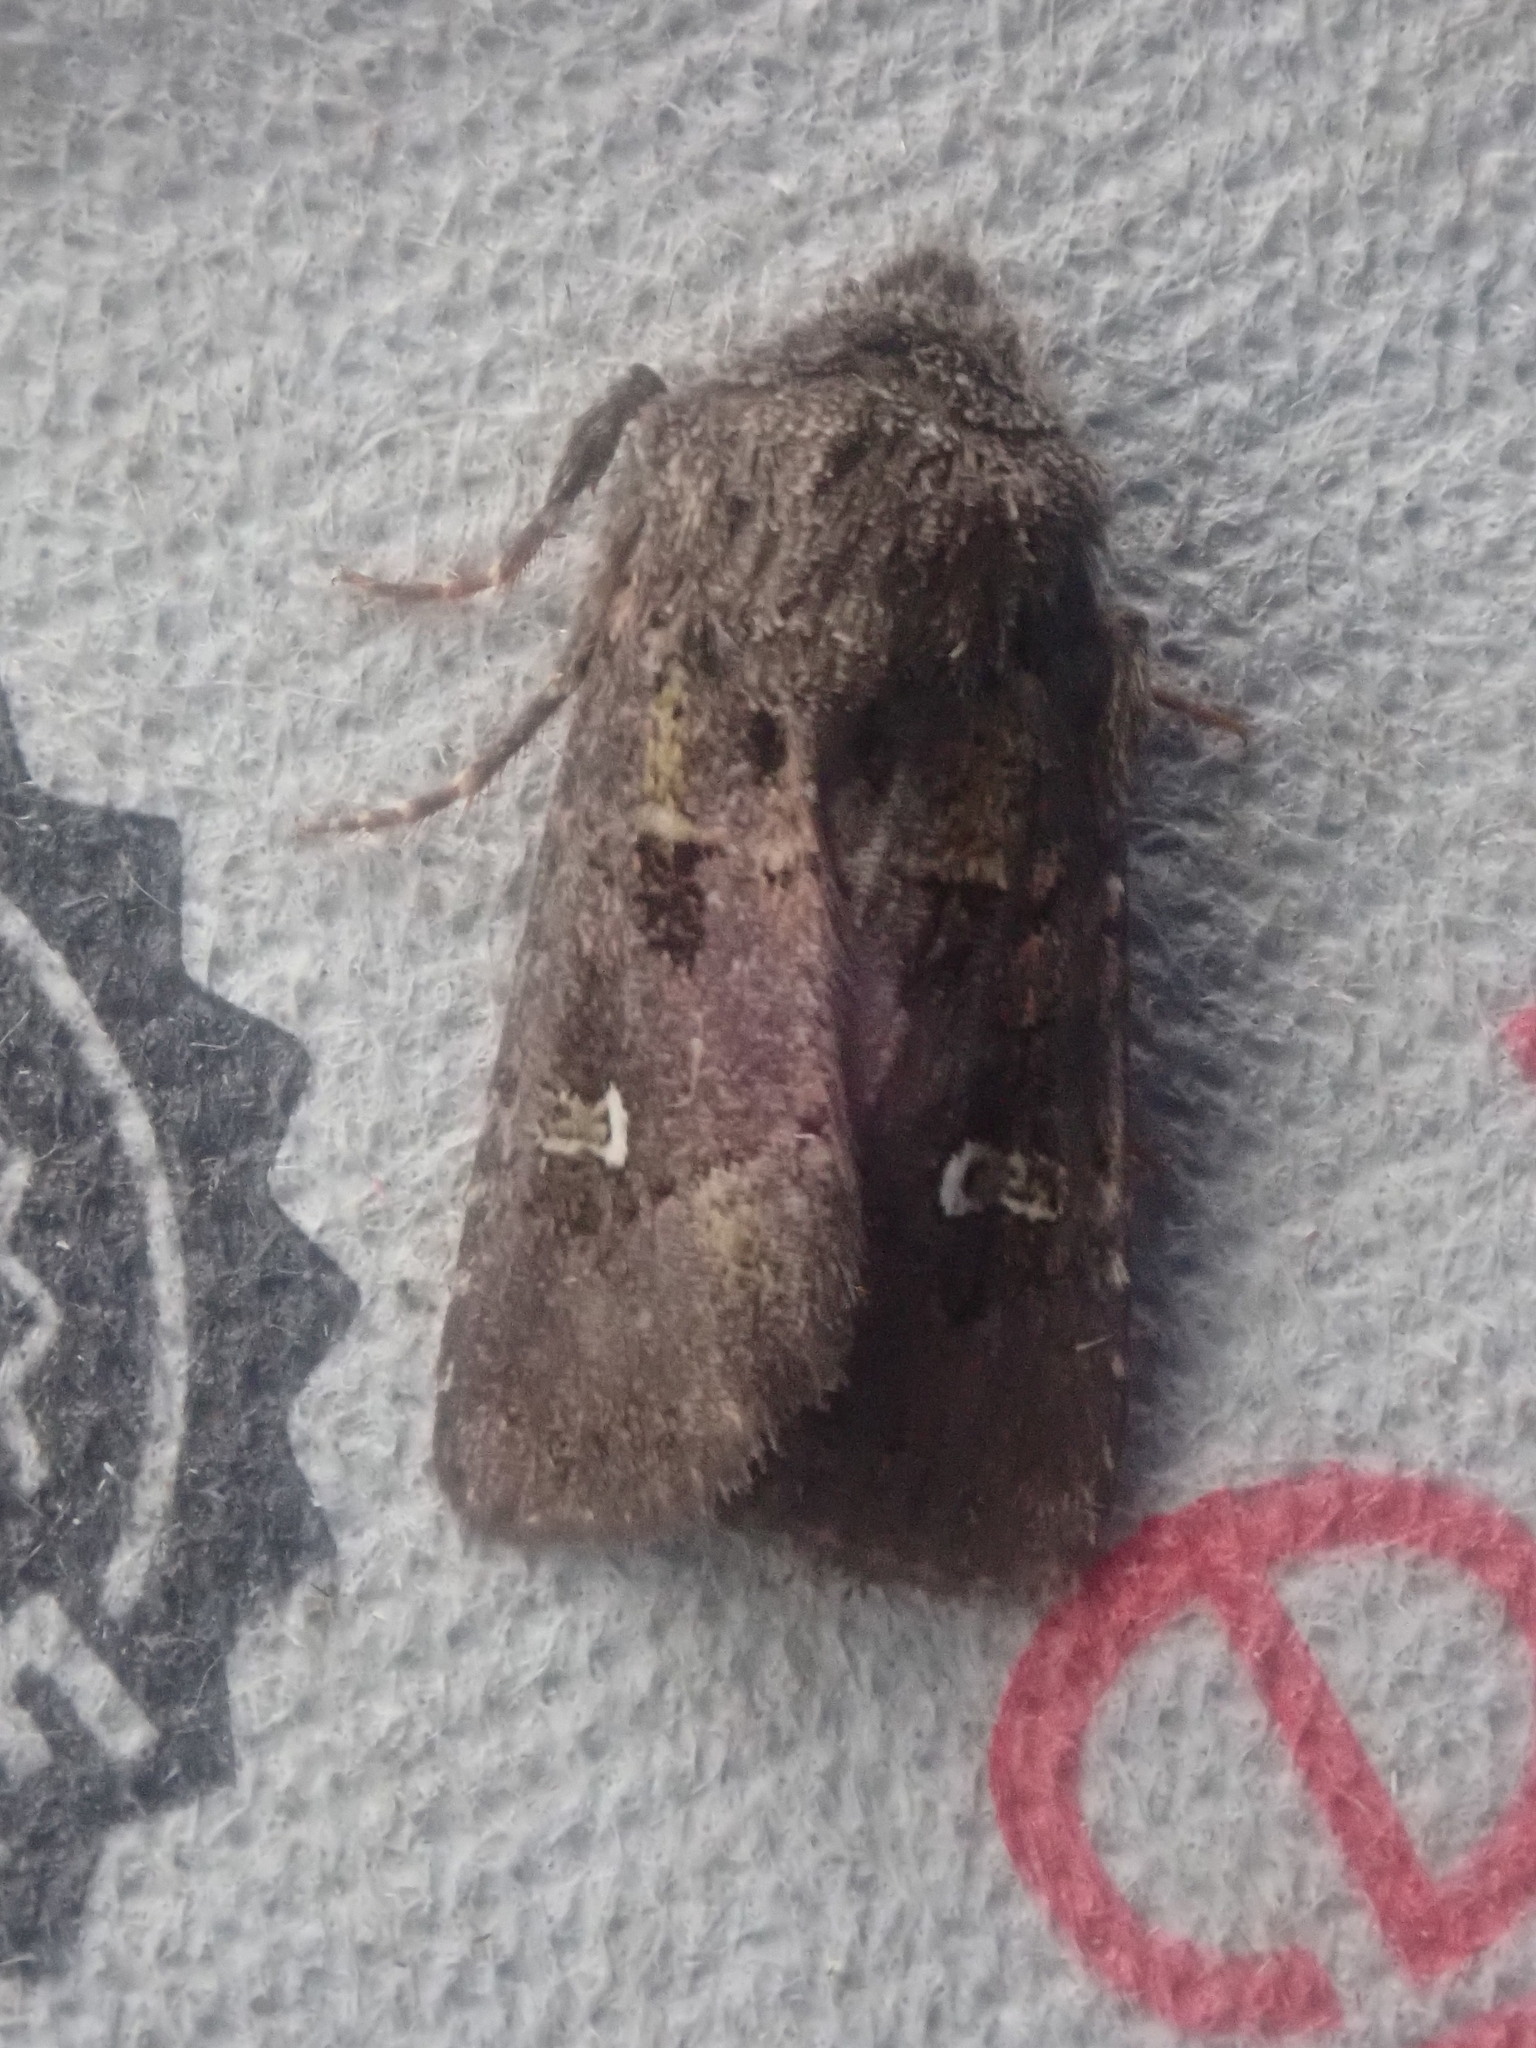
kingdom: Animalia
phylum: Arthropoda
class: Insecta
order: Lepidoptera
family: Noctuidae
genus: Lacinipolia
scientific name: Lacinipolia renigera
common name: Kidney-spotted minor
